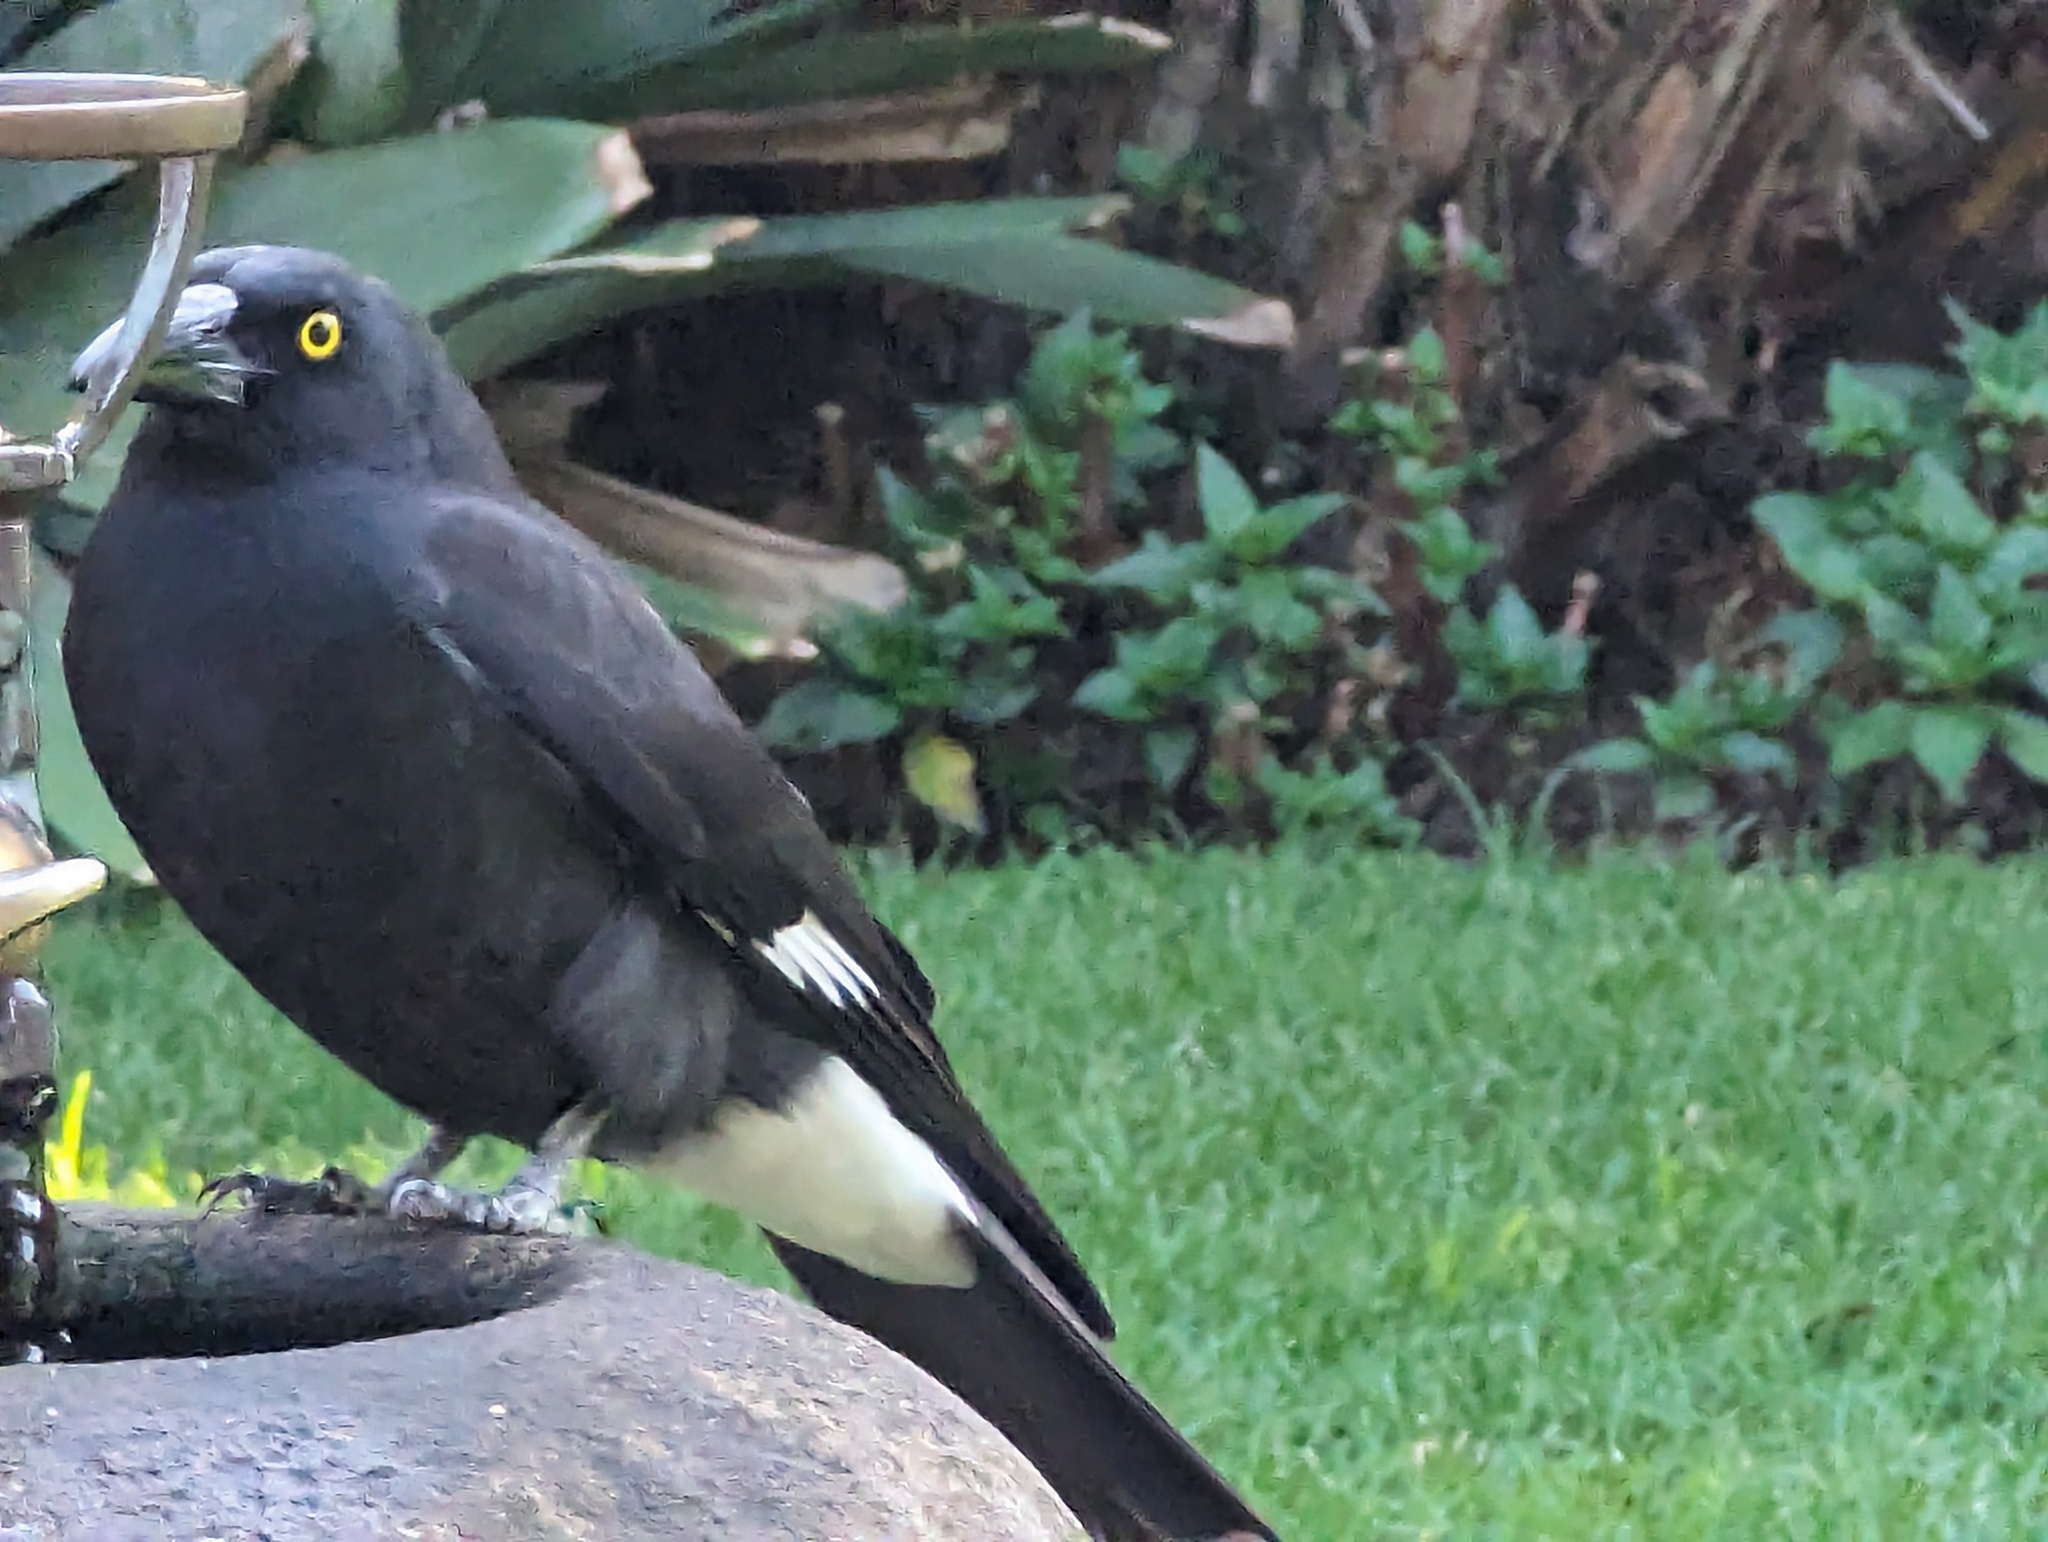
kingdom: Animalia
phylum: Chordata
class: Aves
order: Passeriformes
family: Cracticidae
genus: Strepera
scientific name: Strepera graculina
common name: Pied currawong
